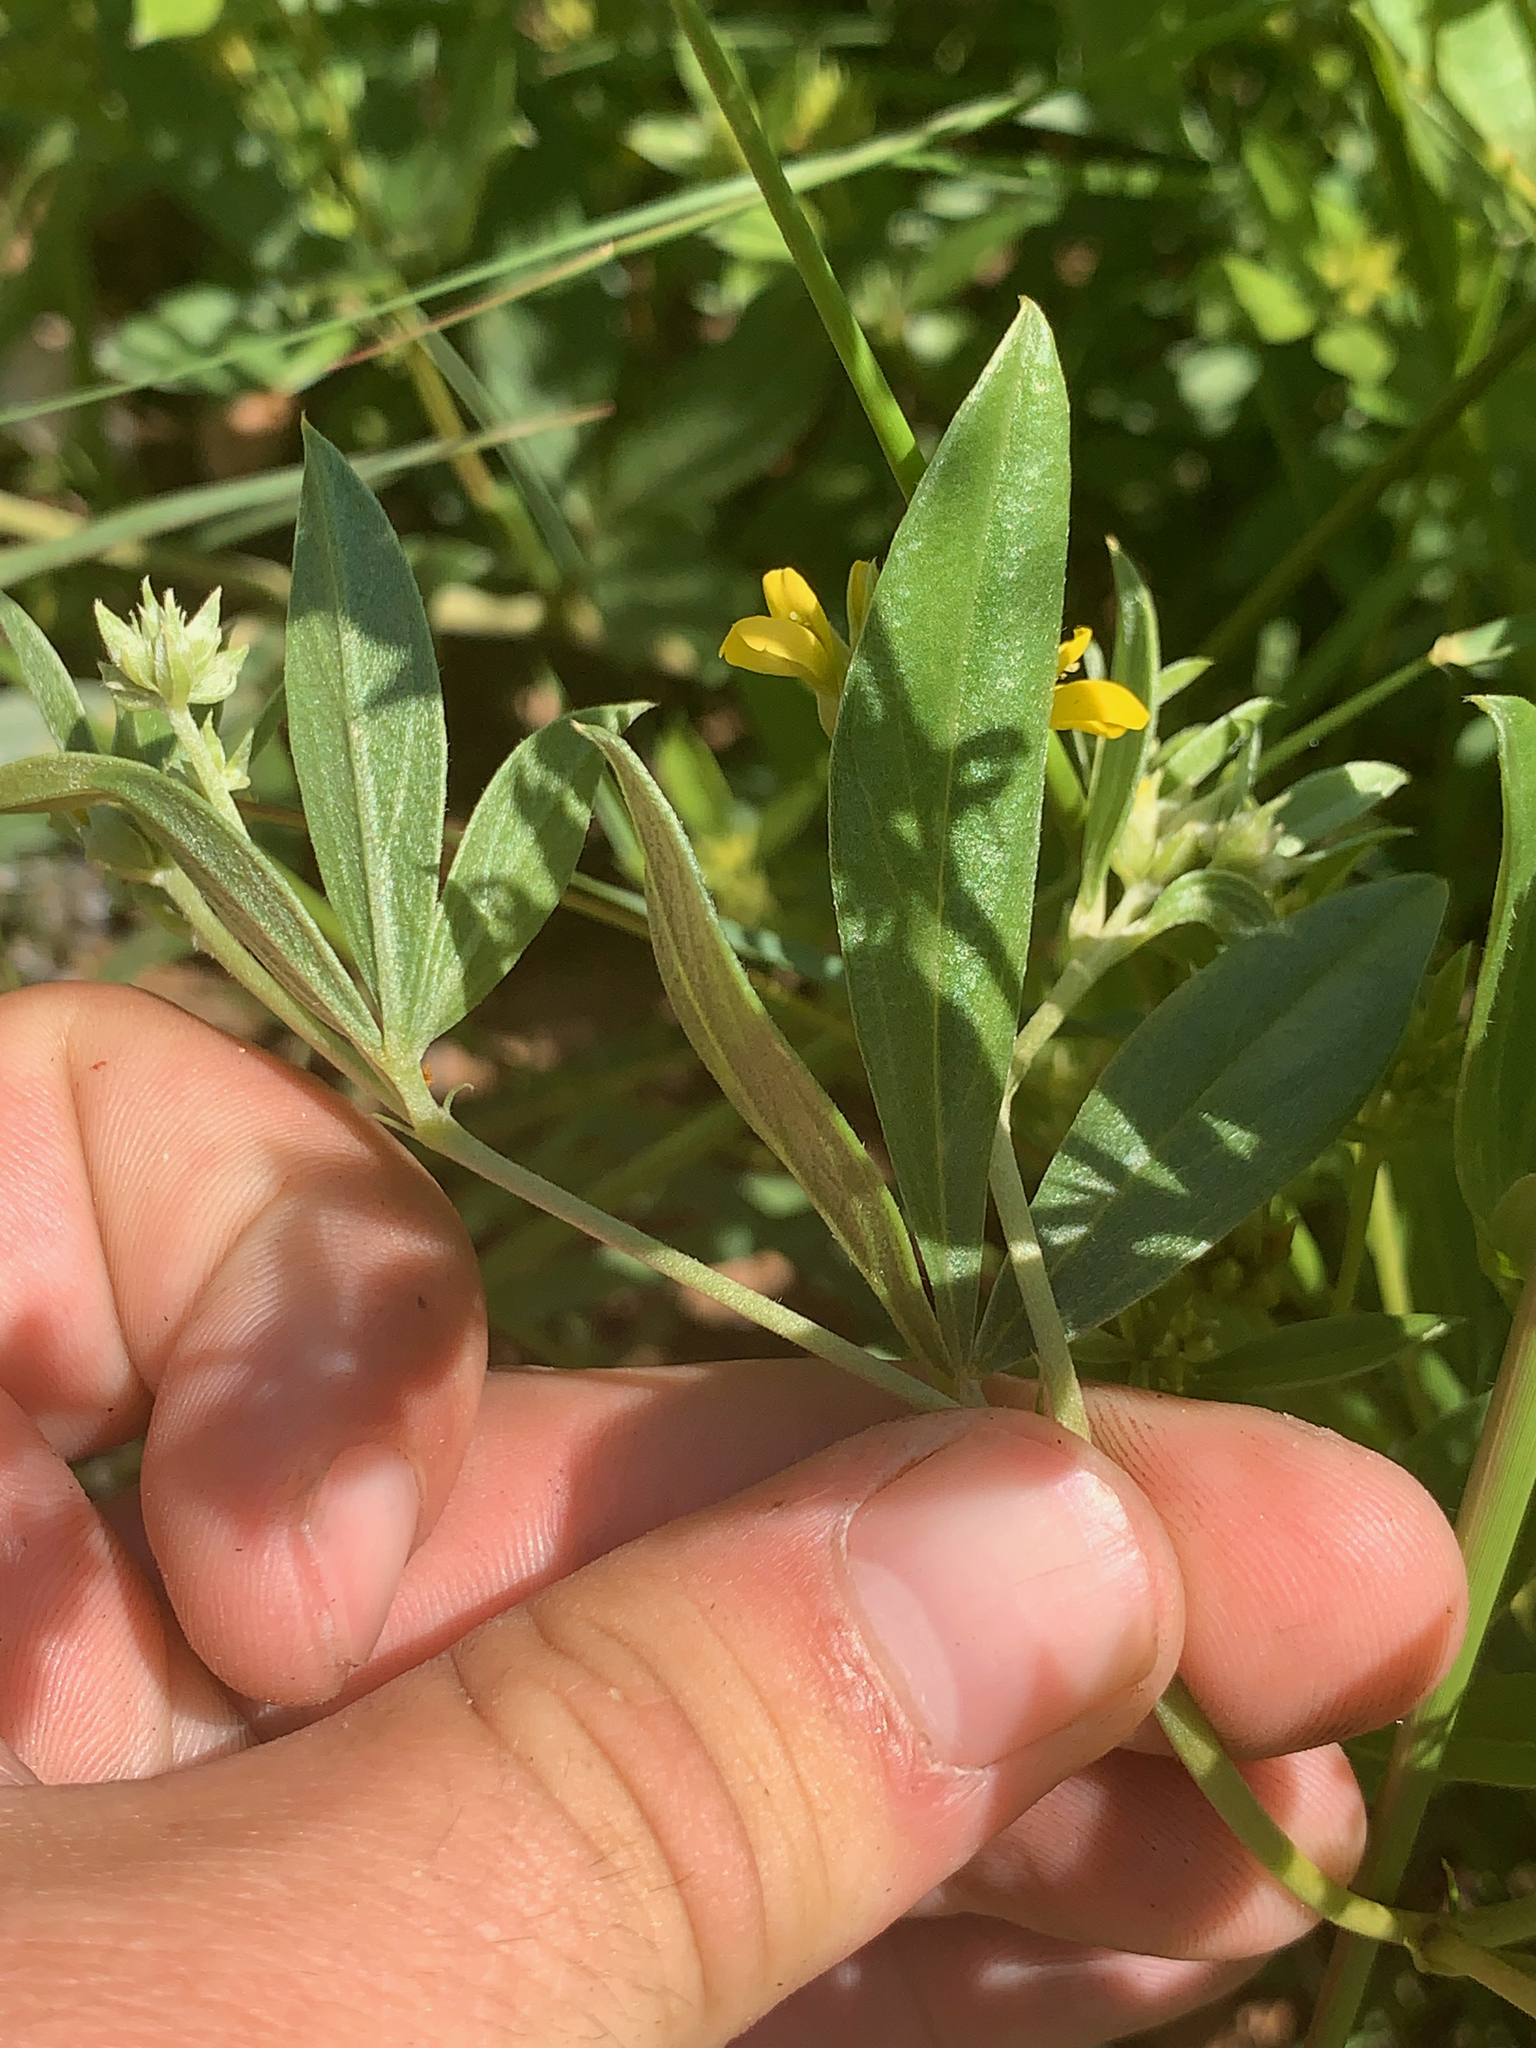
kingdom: Plantae
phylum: Tracheophyta
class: Magnoliopsida
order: Fabales
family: Fabaceae
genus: Pearsonia
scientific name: Pearsonia cajanifolia
